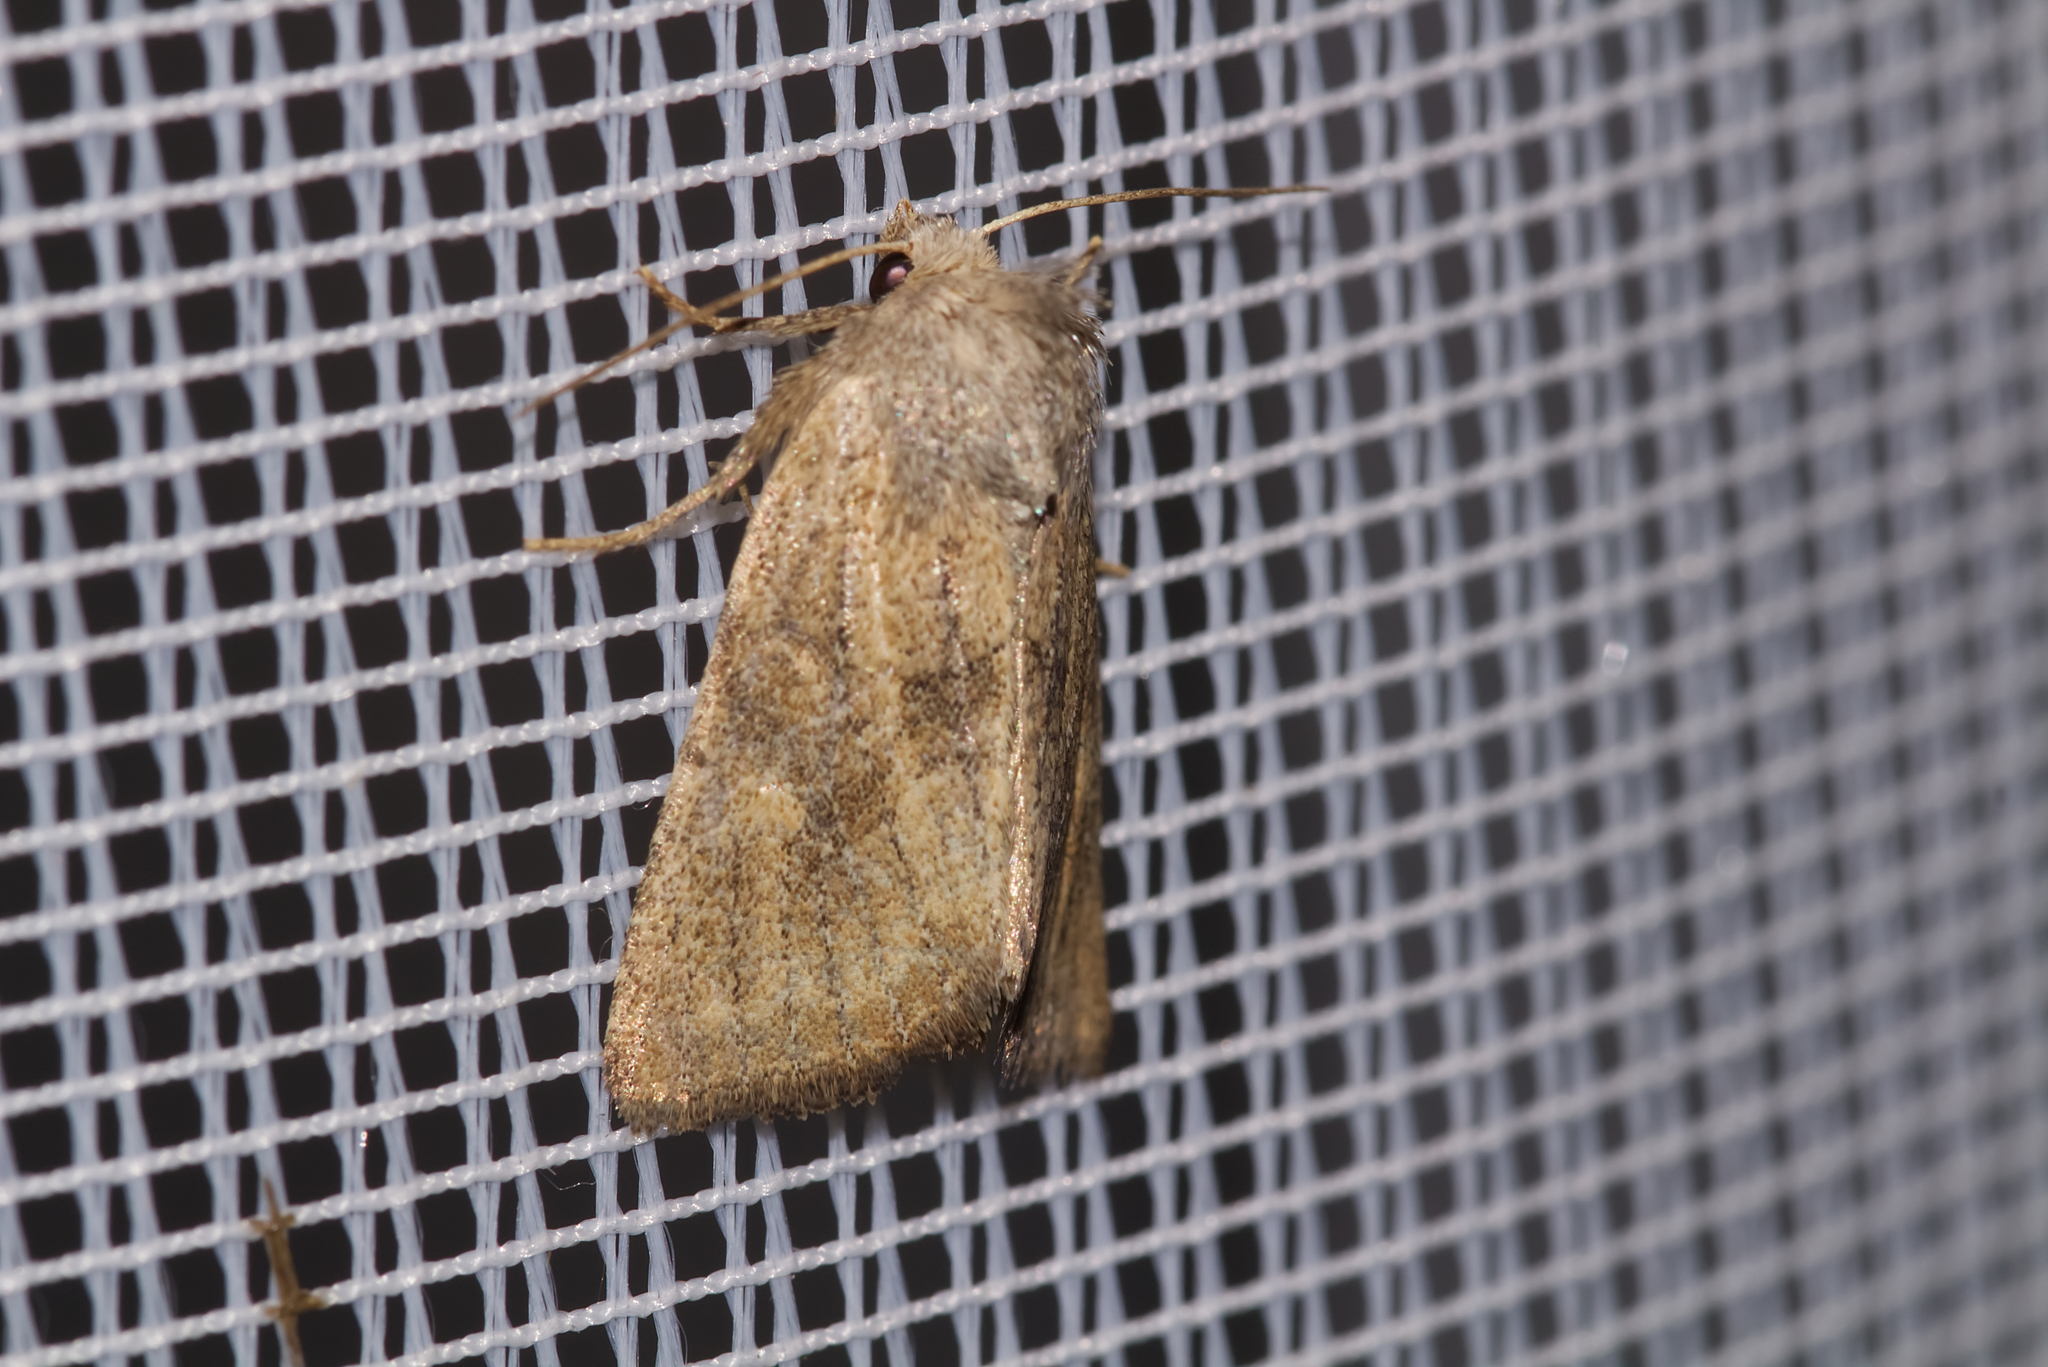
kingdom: Animalia
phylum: Arthropoda
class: Insecta
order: Lepidoptera
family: Noctuidae
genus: Photedes
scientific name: Photedes fluxa
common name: Mere wainscot
